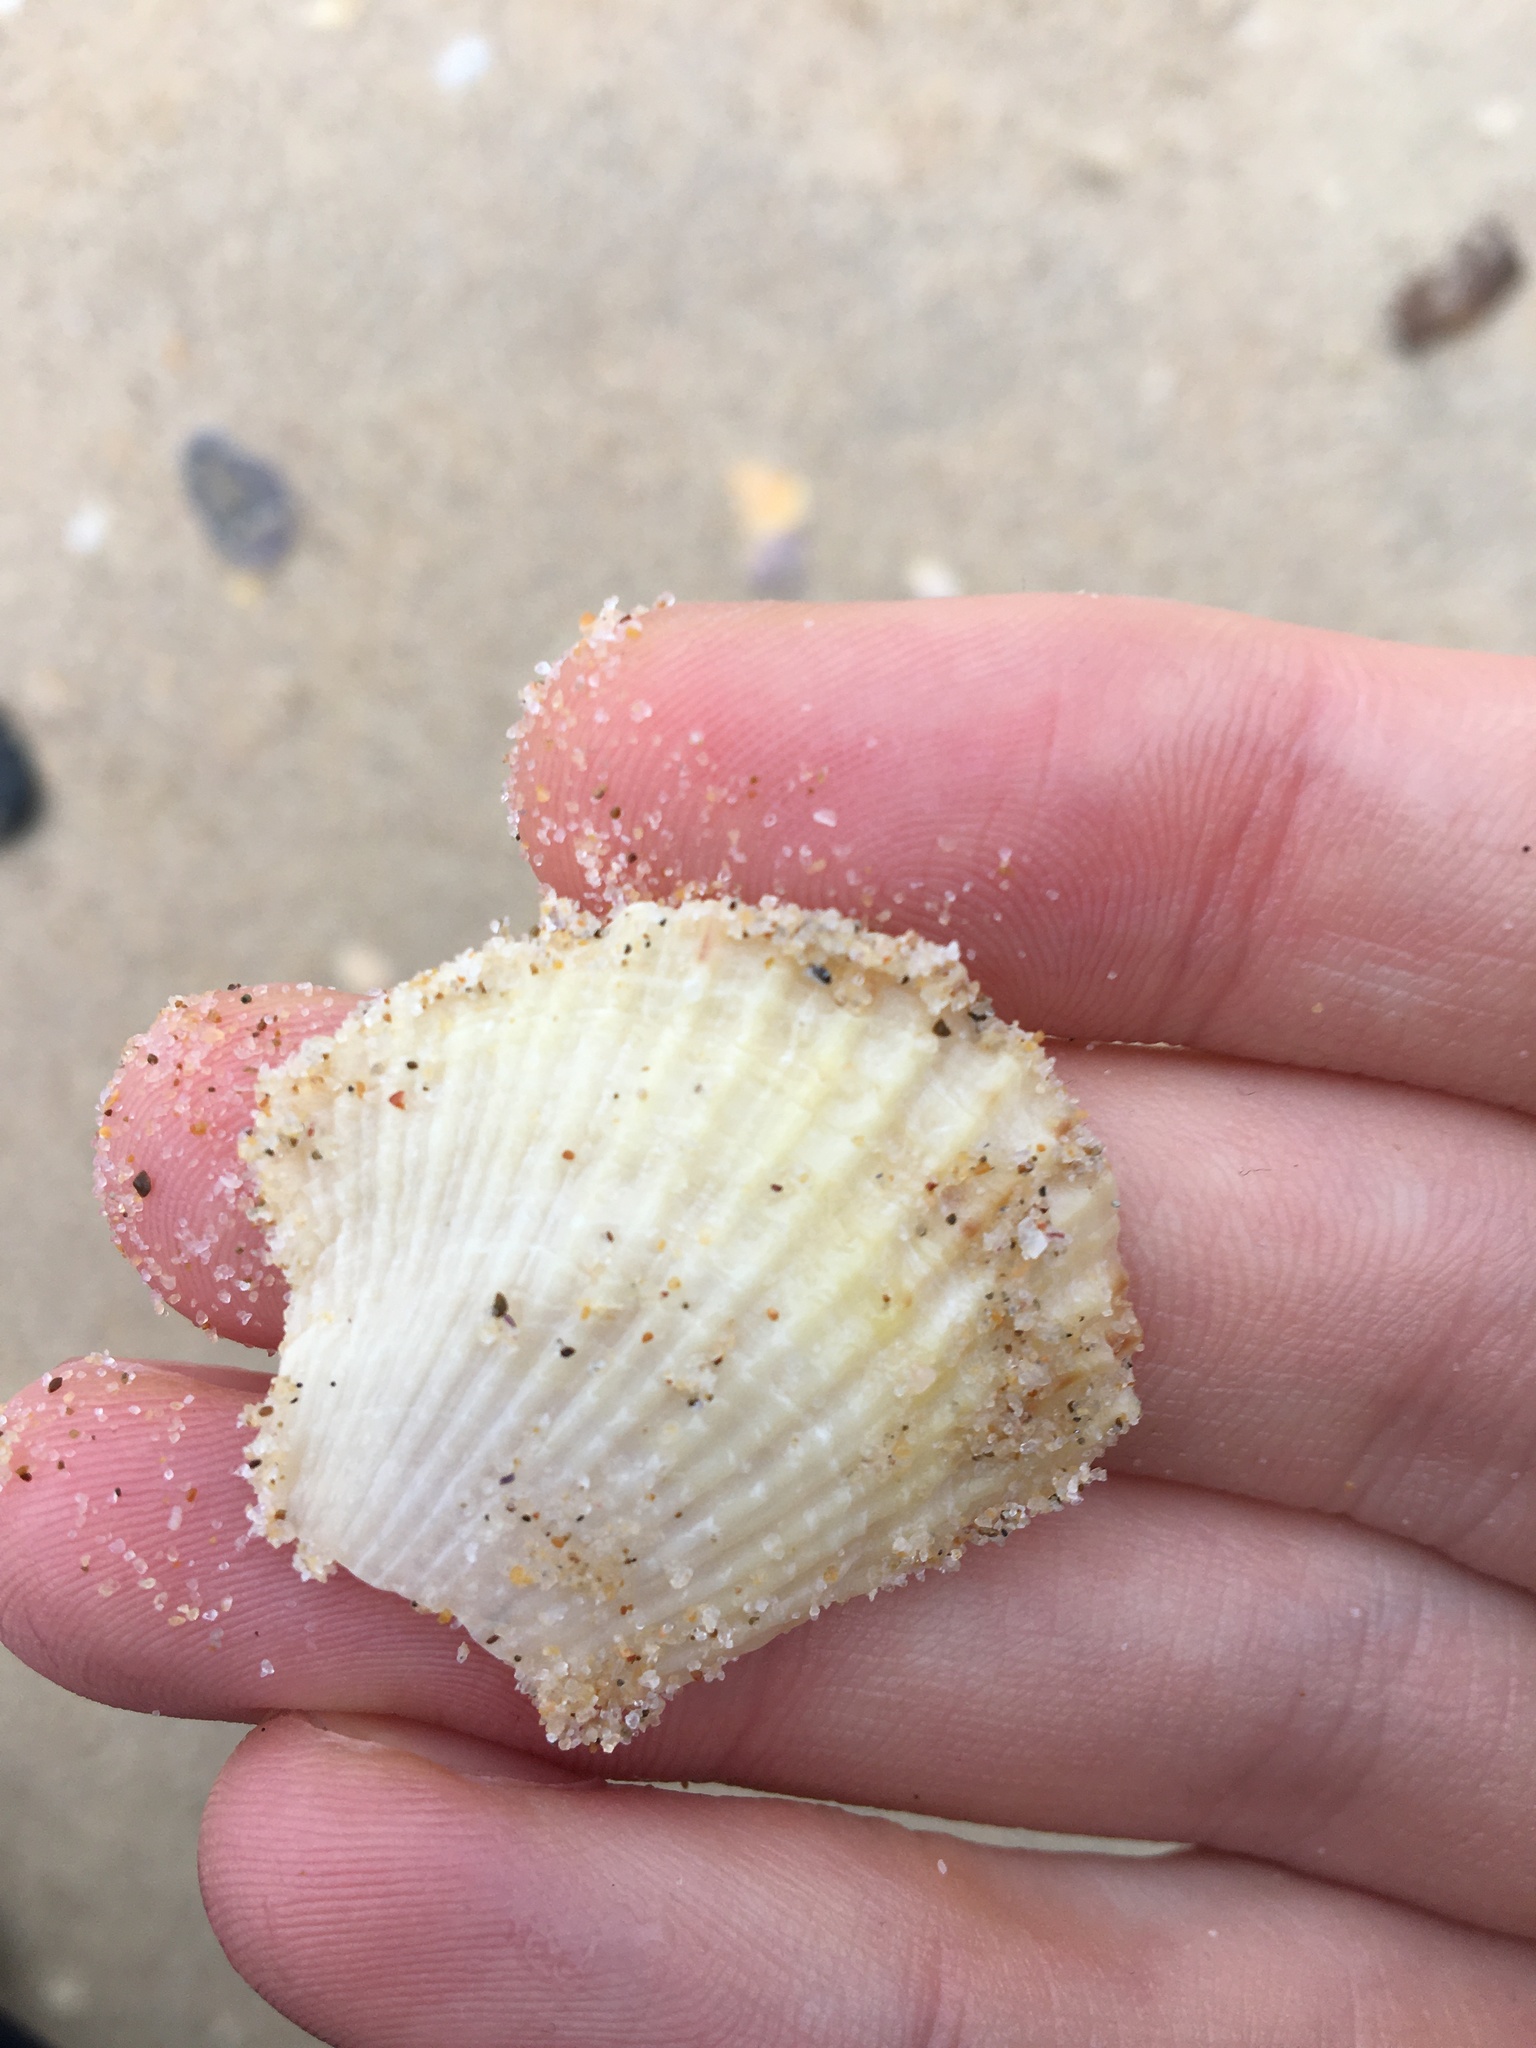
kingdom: Animalia
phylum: Mollusca
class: Bivalvia
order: Pectinida
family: Pectinidae
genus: Scaeochlamys
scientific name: Scaeochlamys livida
